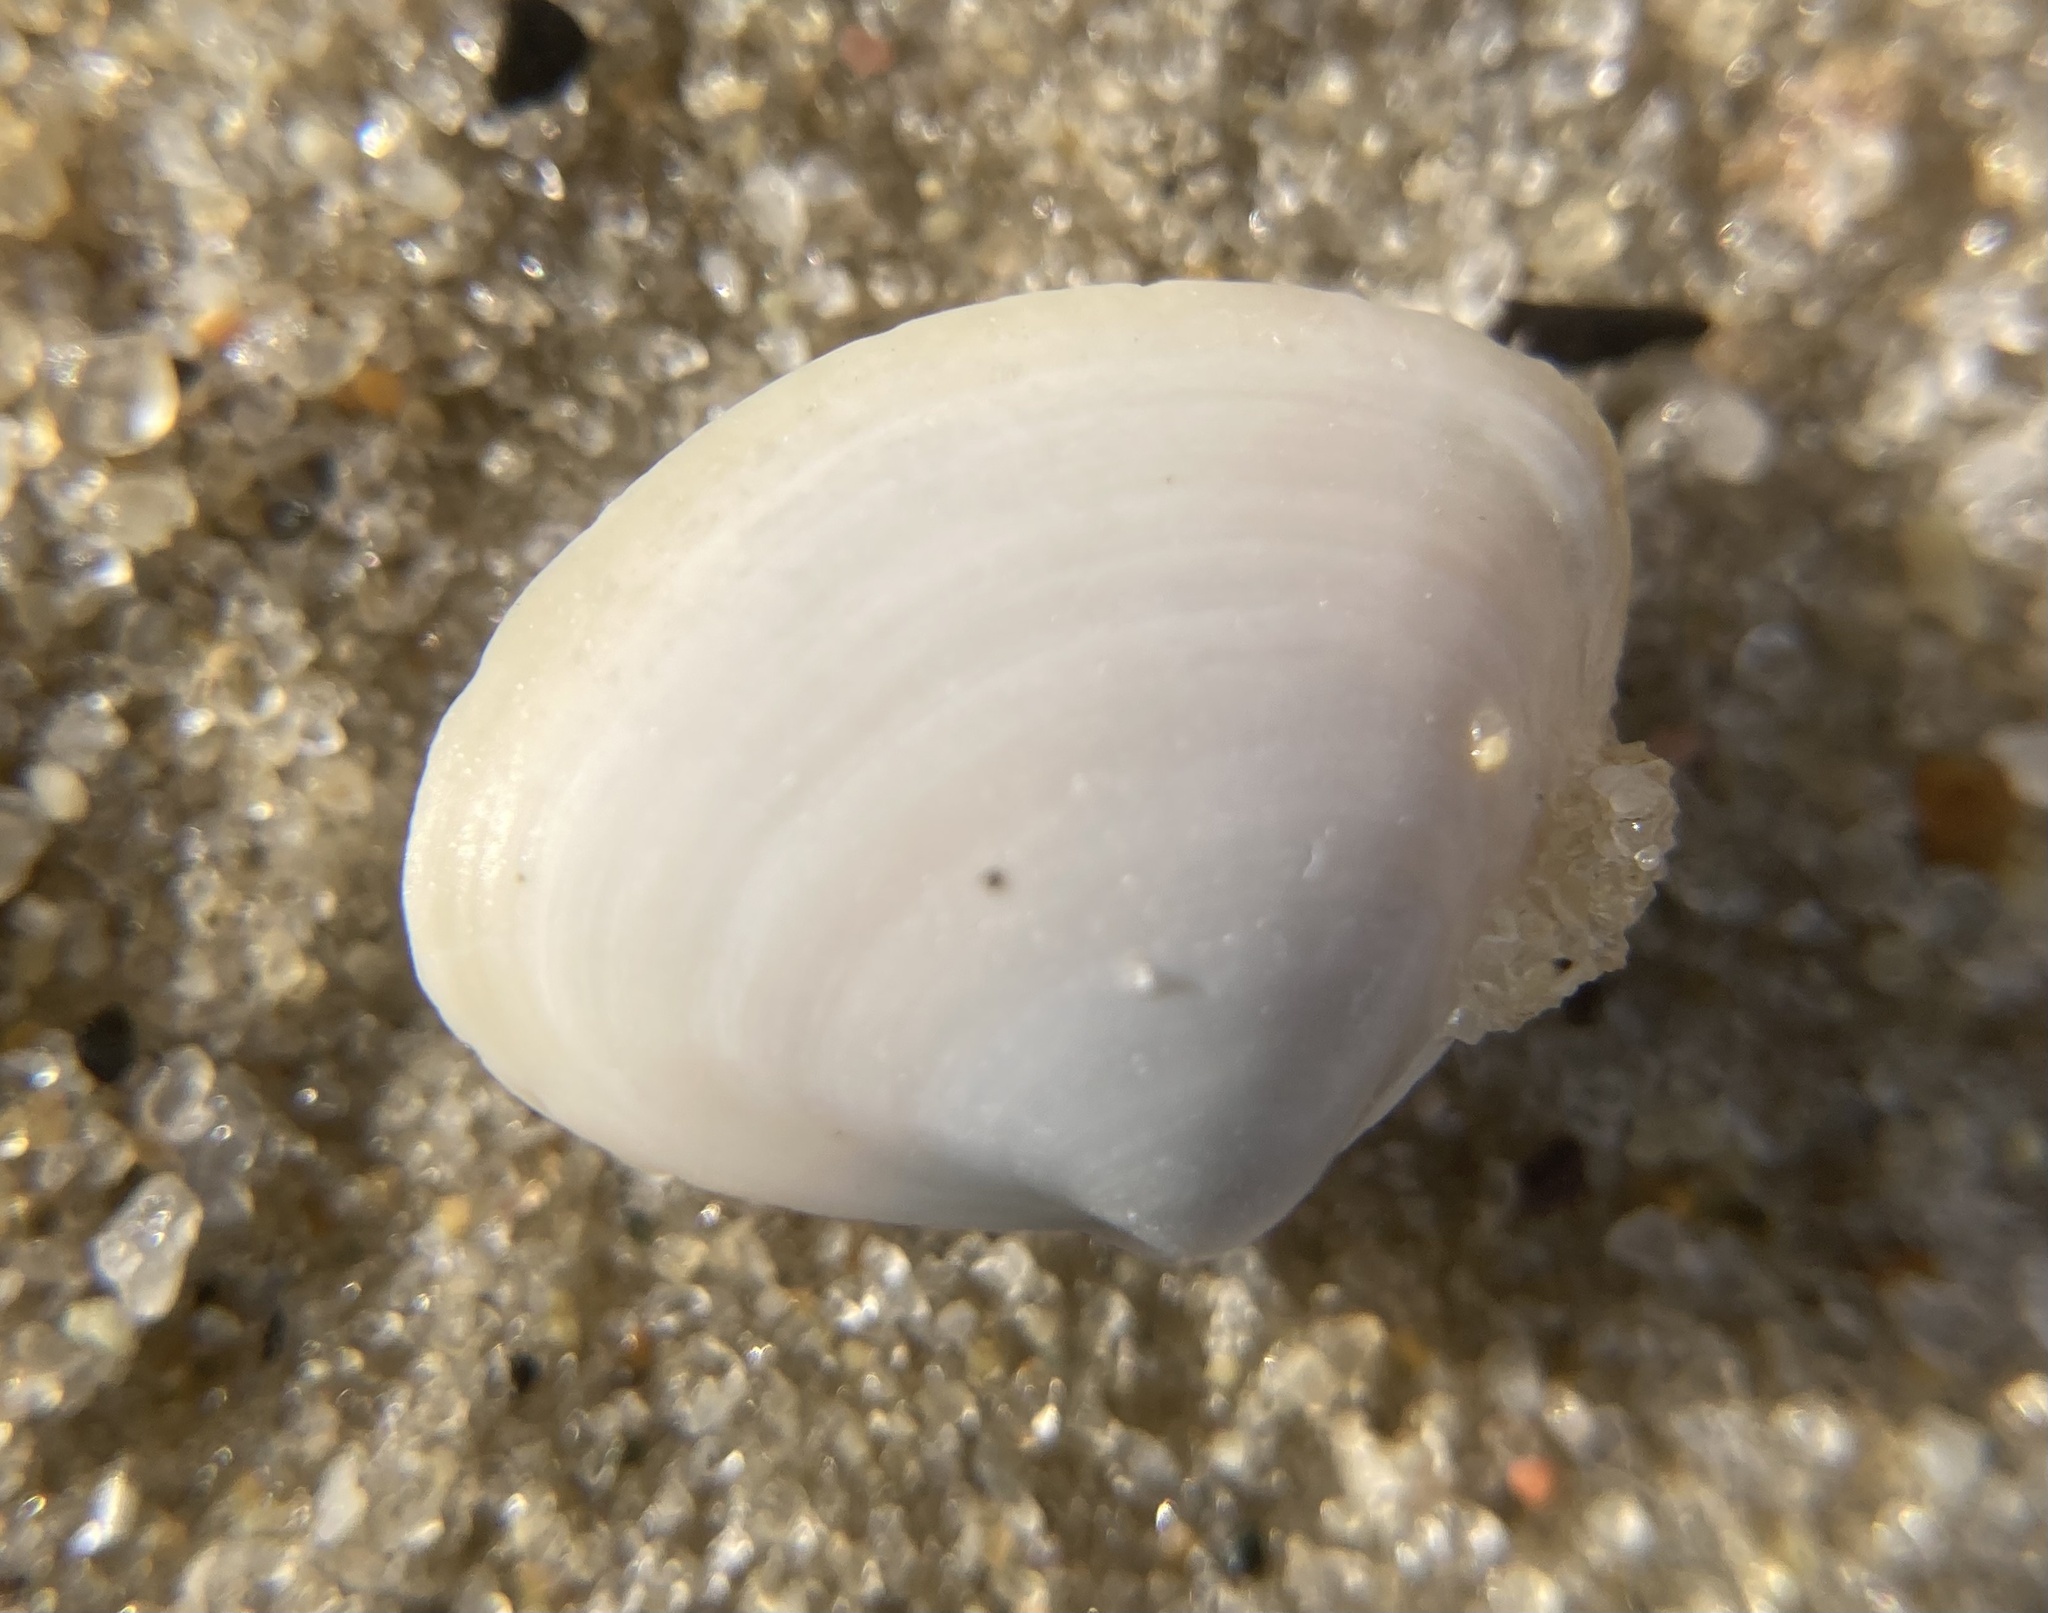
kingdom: Animalia
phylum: Mollusca
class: Bivalvia
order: Venerida
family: Mactridae
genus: Spisula
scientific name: Spisula solidissima
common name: Atlantic surf clam
